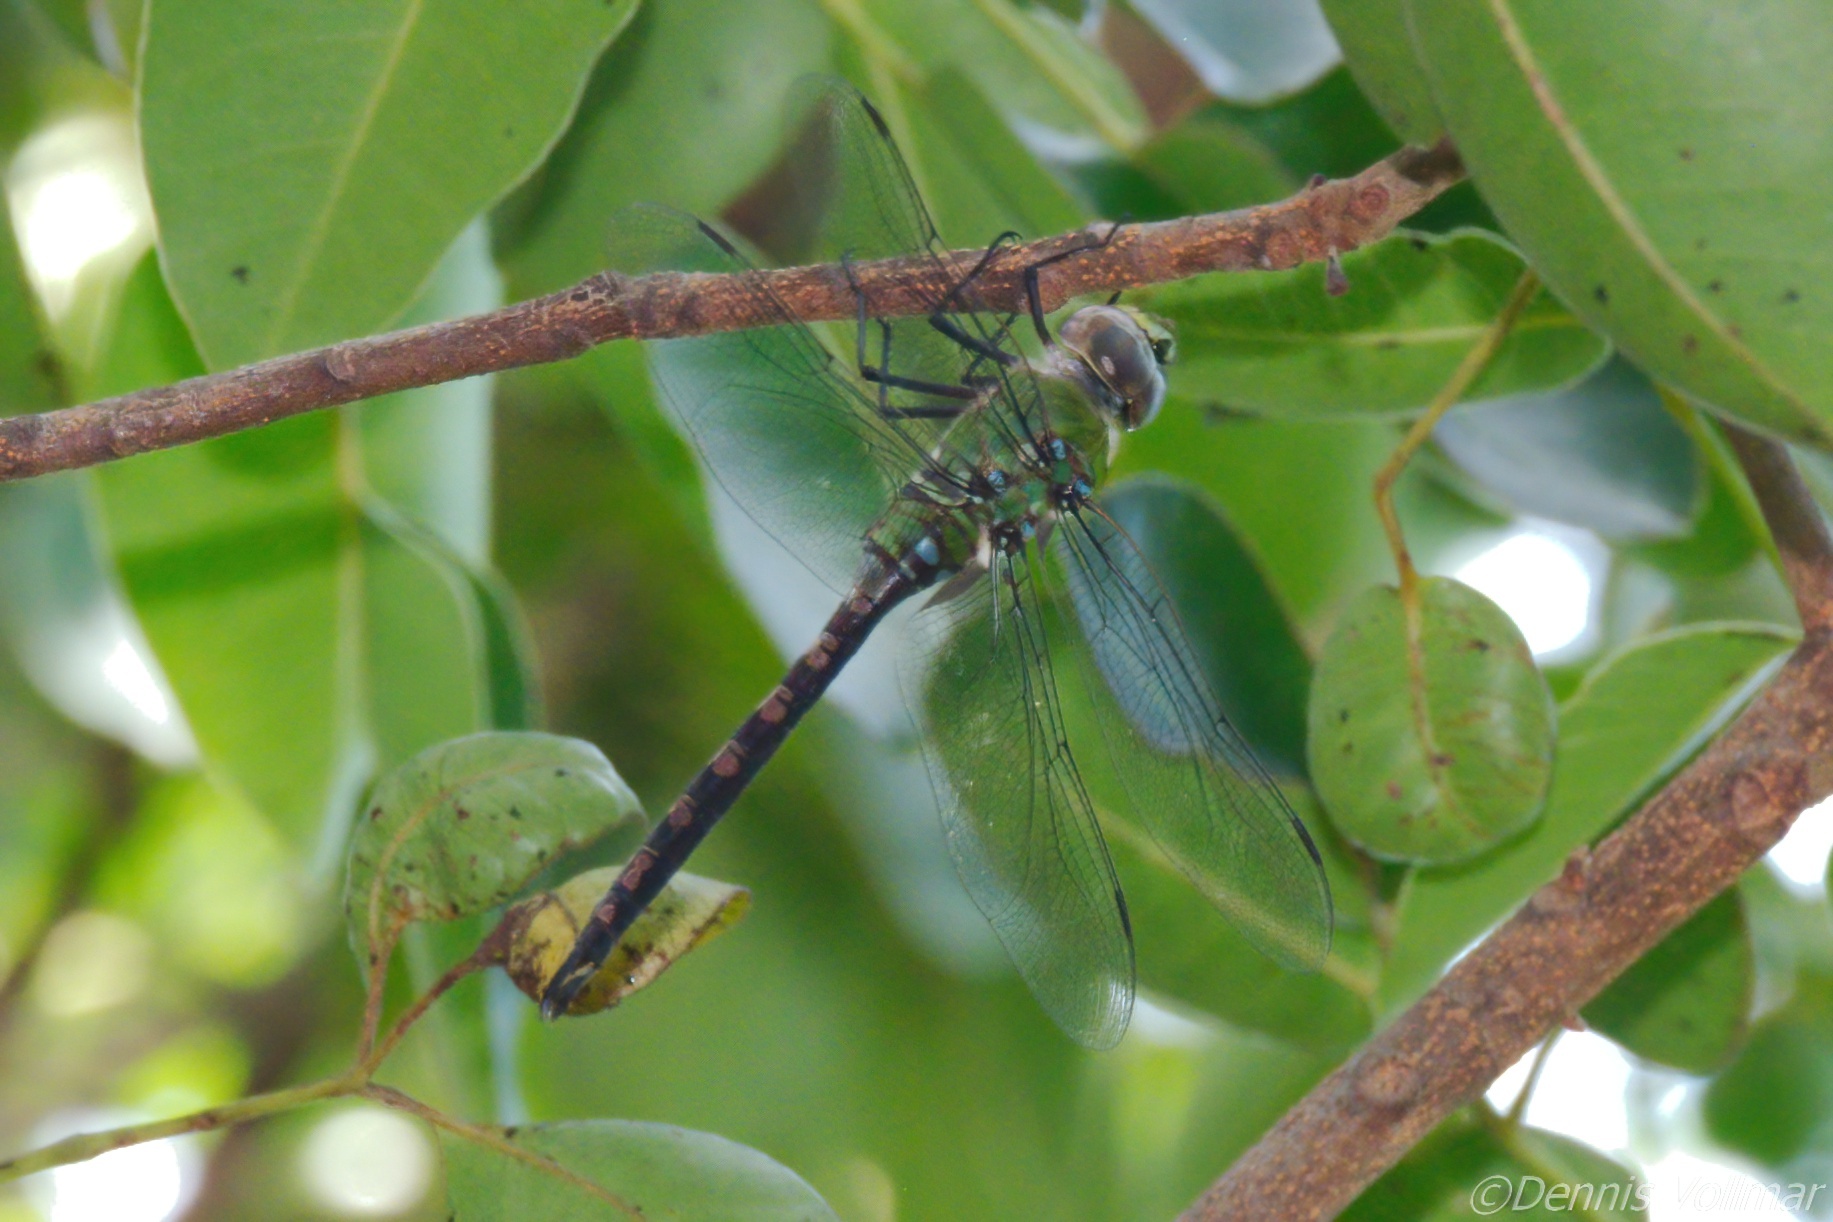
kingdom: Animalia
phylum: Arthropoda
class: Insecta
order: Odonata
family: Aeshnidae
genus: Anax
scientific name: Anax amazili
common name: Amazon darner
